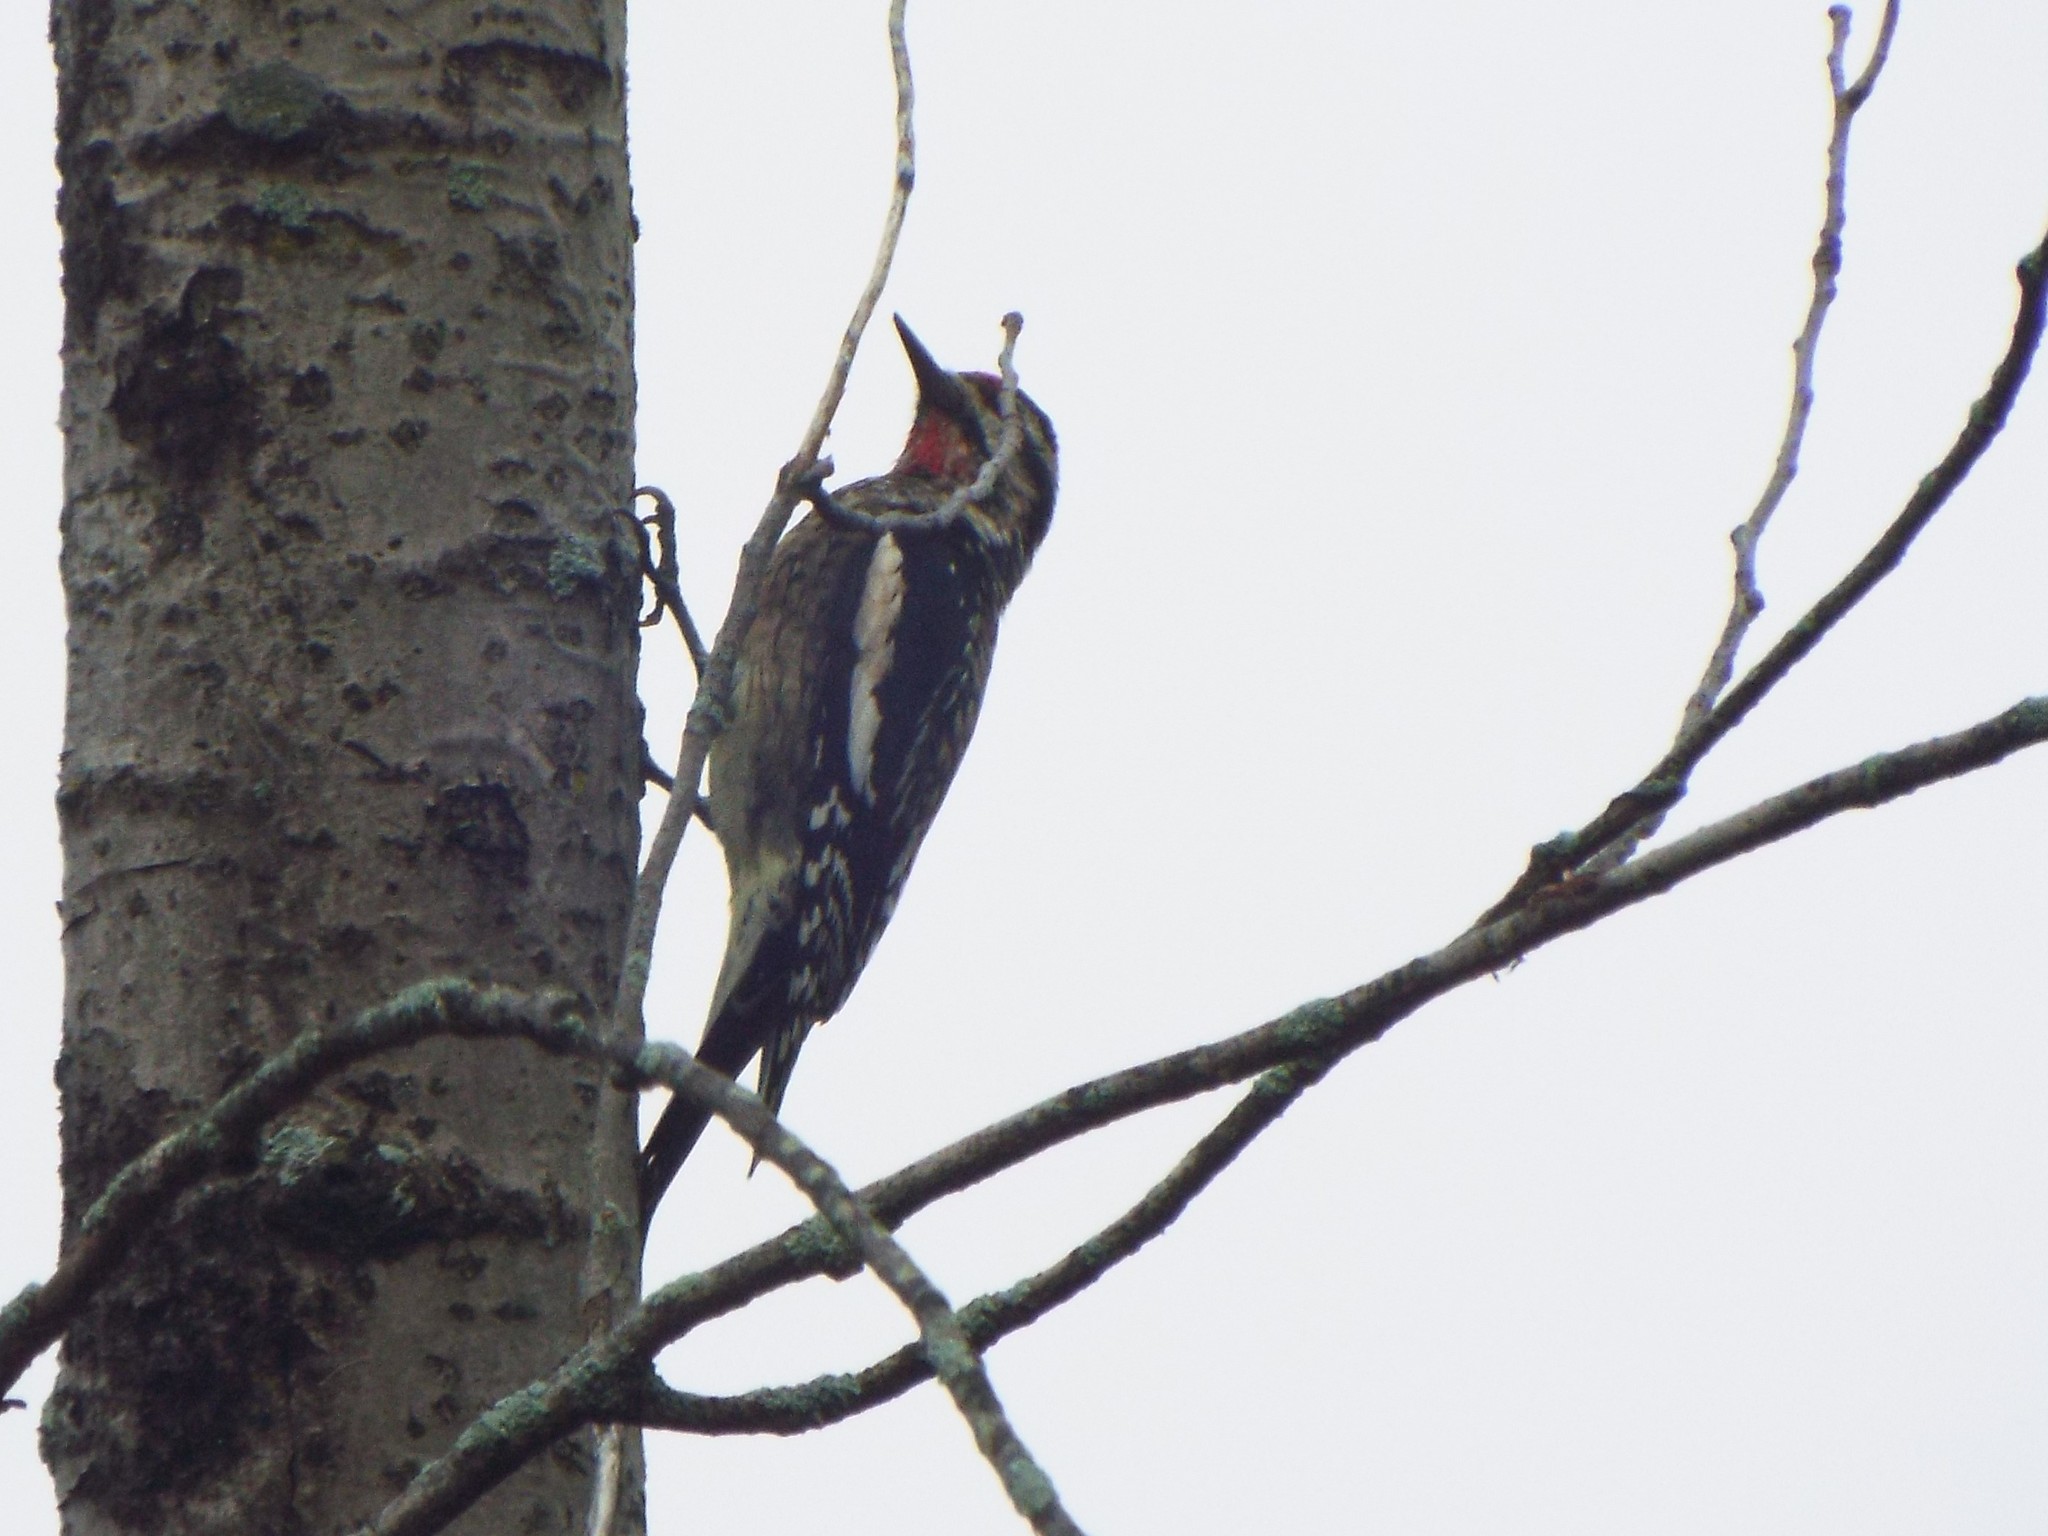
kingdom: Animalia
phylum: Chordata
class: Aves
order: Piciformes
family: Picidae
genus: Sphyrapicus
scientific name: Sphyrapicus varius
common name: Yellow-bellied sapsucker
